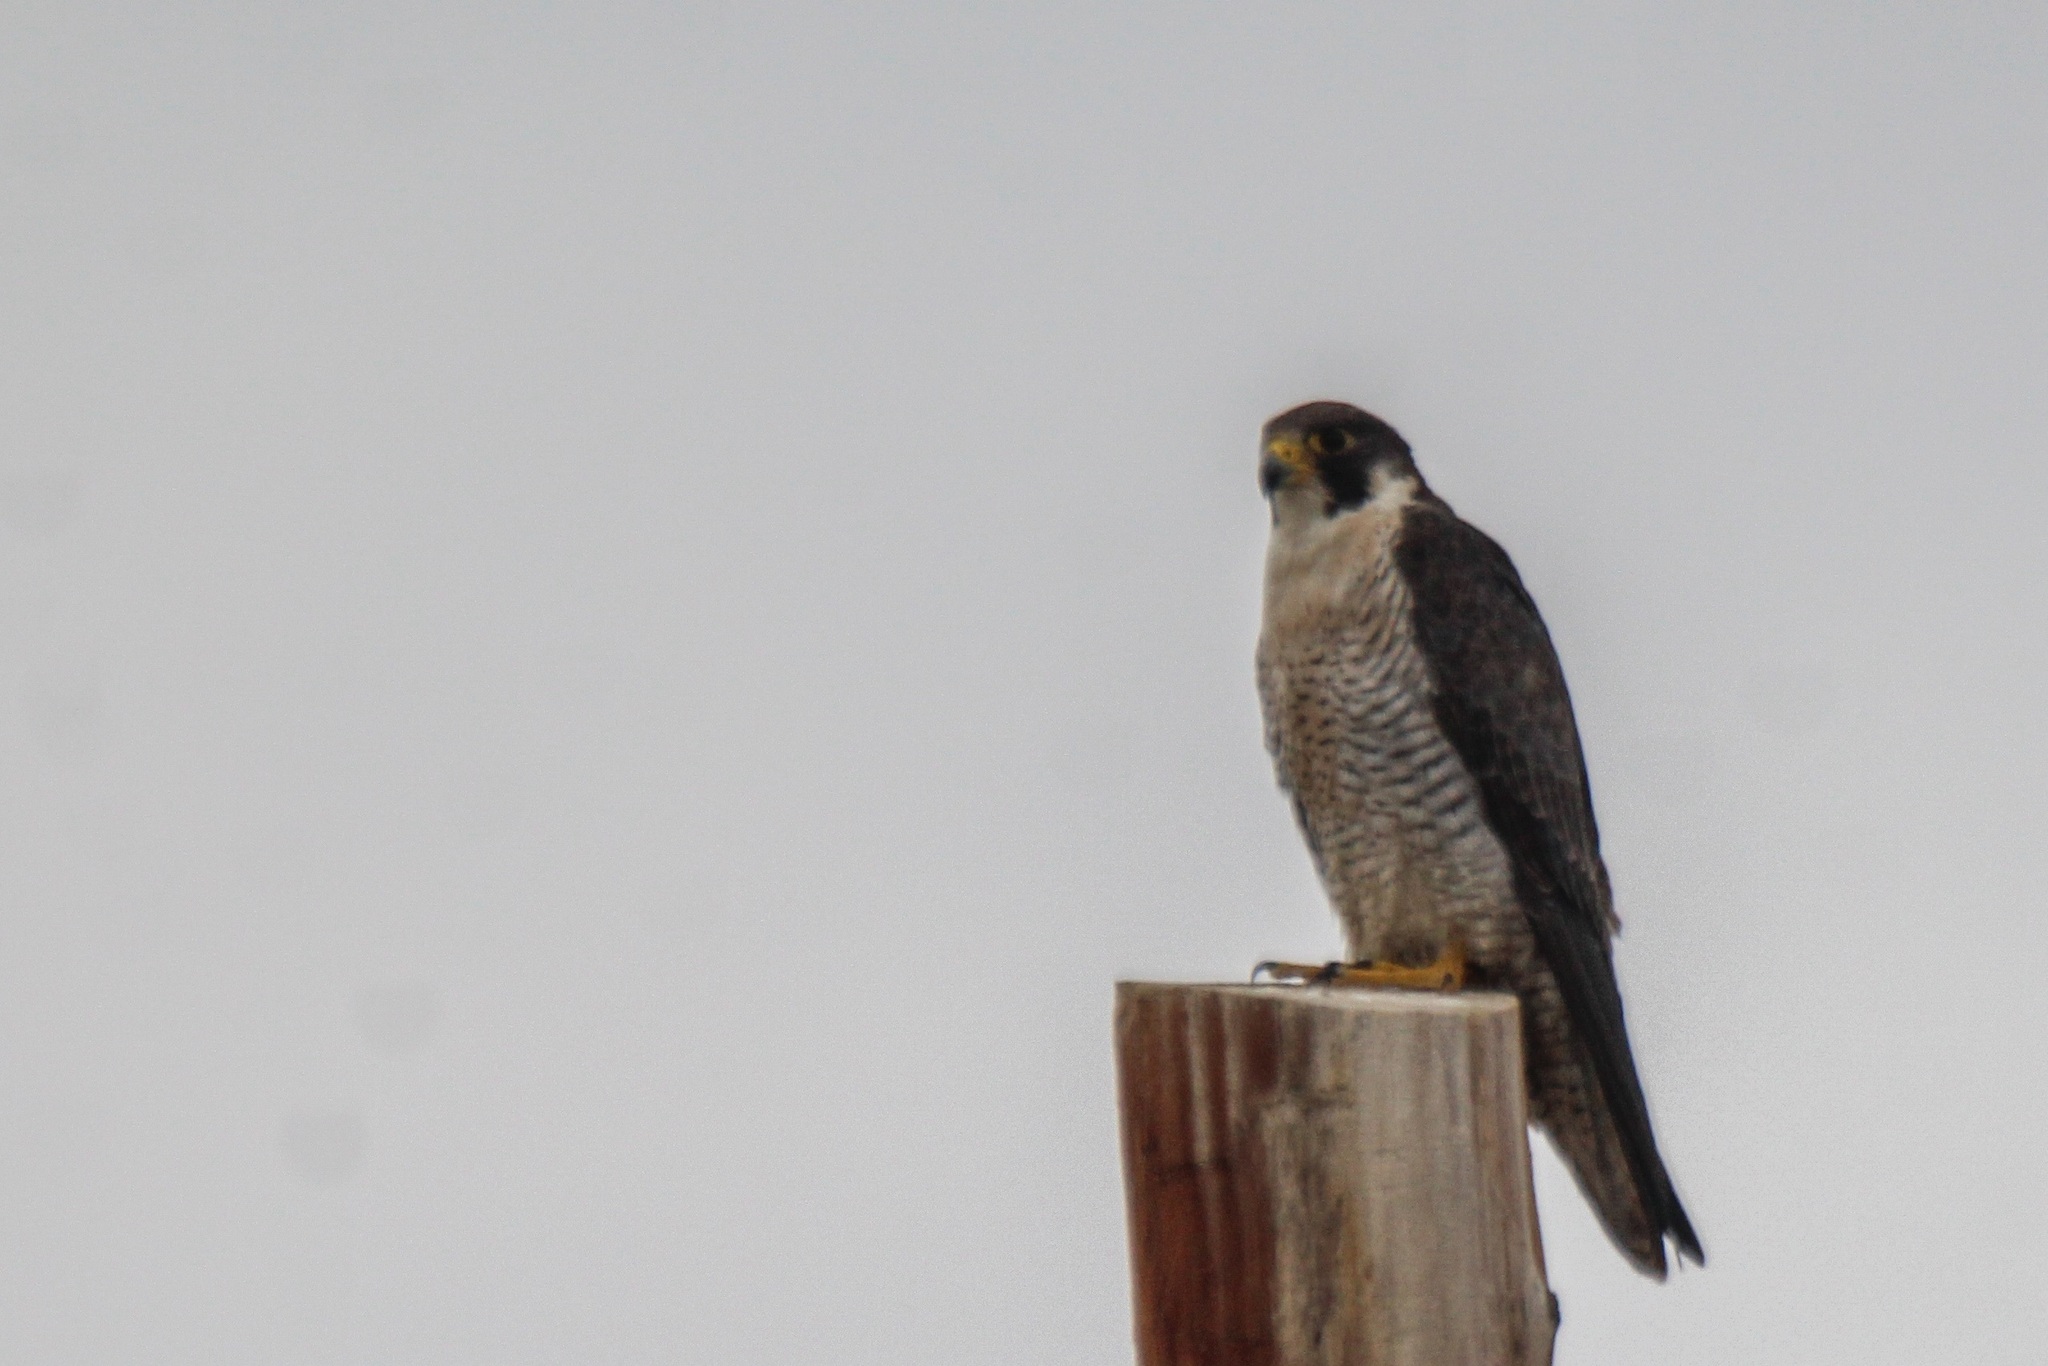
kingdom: Animalia
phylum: Chordata
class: Aves
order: Falconiformes
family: Falconidae
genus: Falco
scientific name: Falco peregrinus
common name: Peregrine falcon
